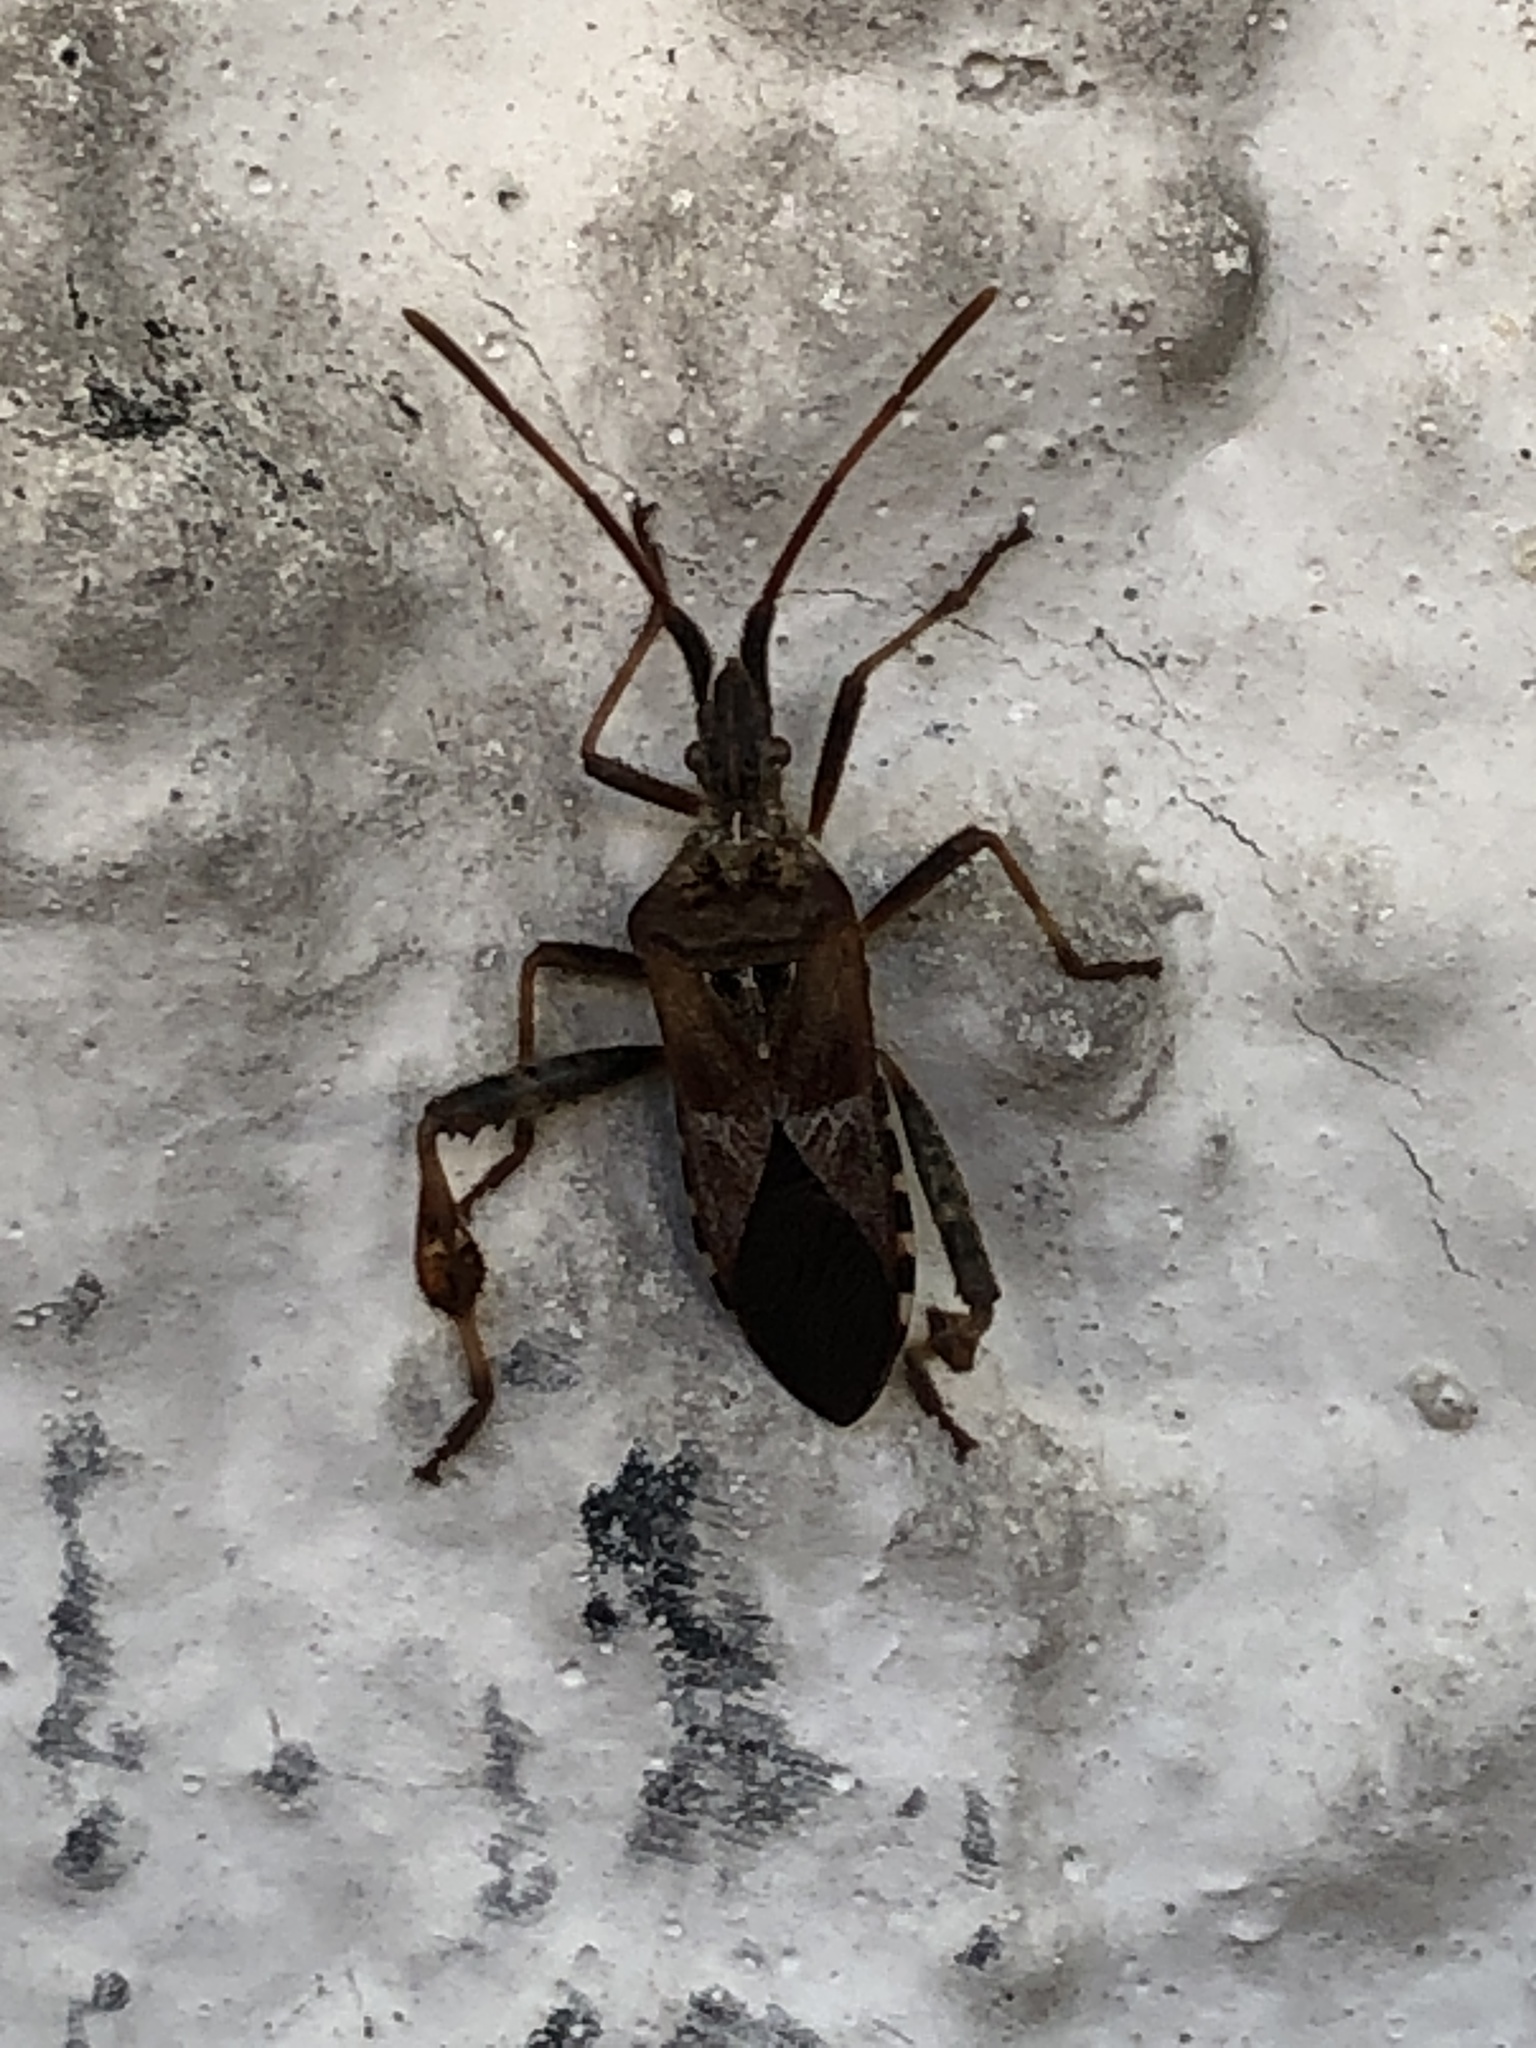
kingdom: Animalia
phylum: Arthropoda
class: Insecta
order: Hemiptera
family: Coreidae
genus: Leptoglossus
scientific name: Leptoglossus occidentalis
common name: Western conifer-seed bug
